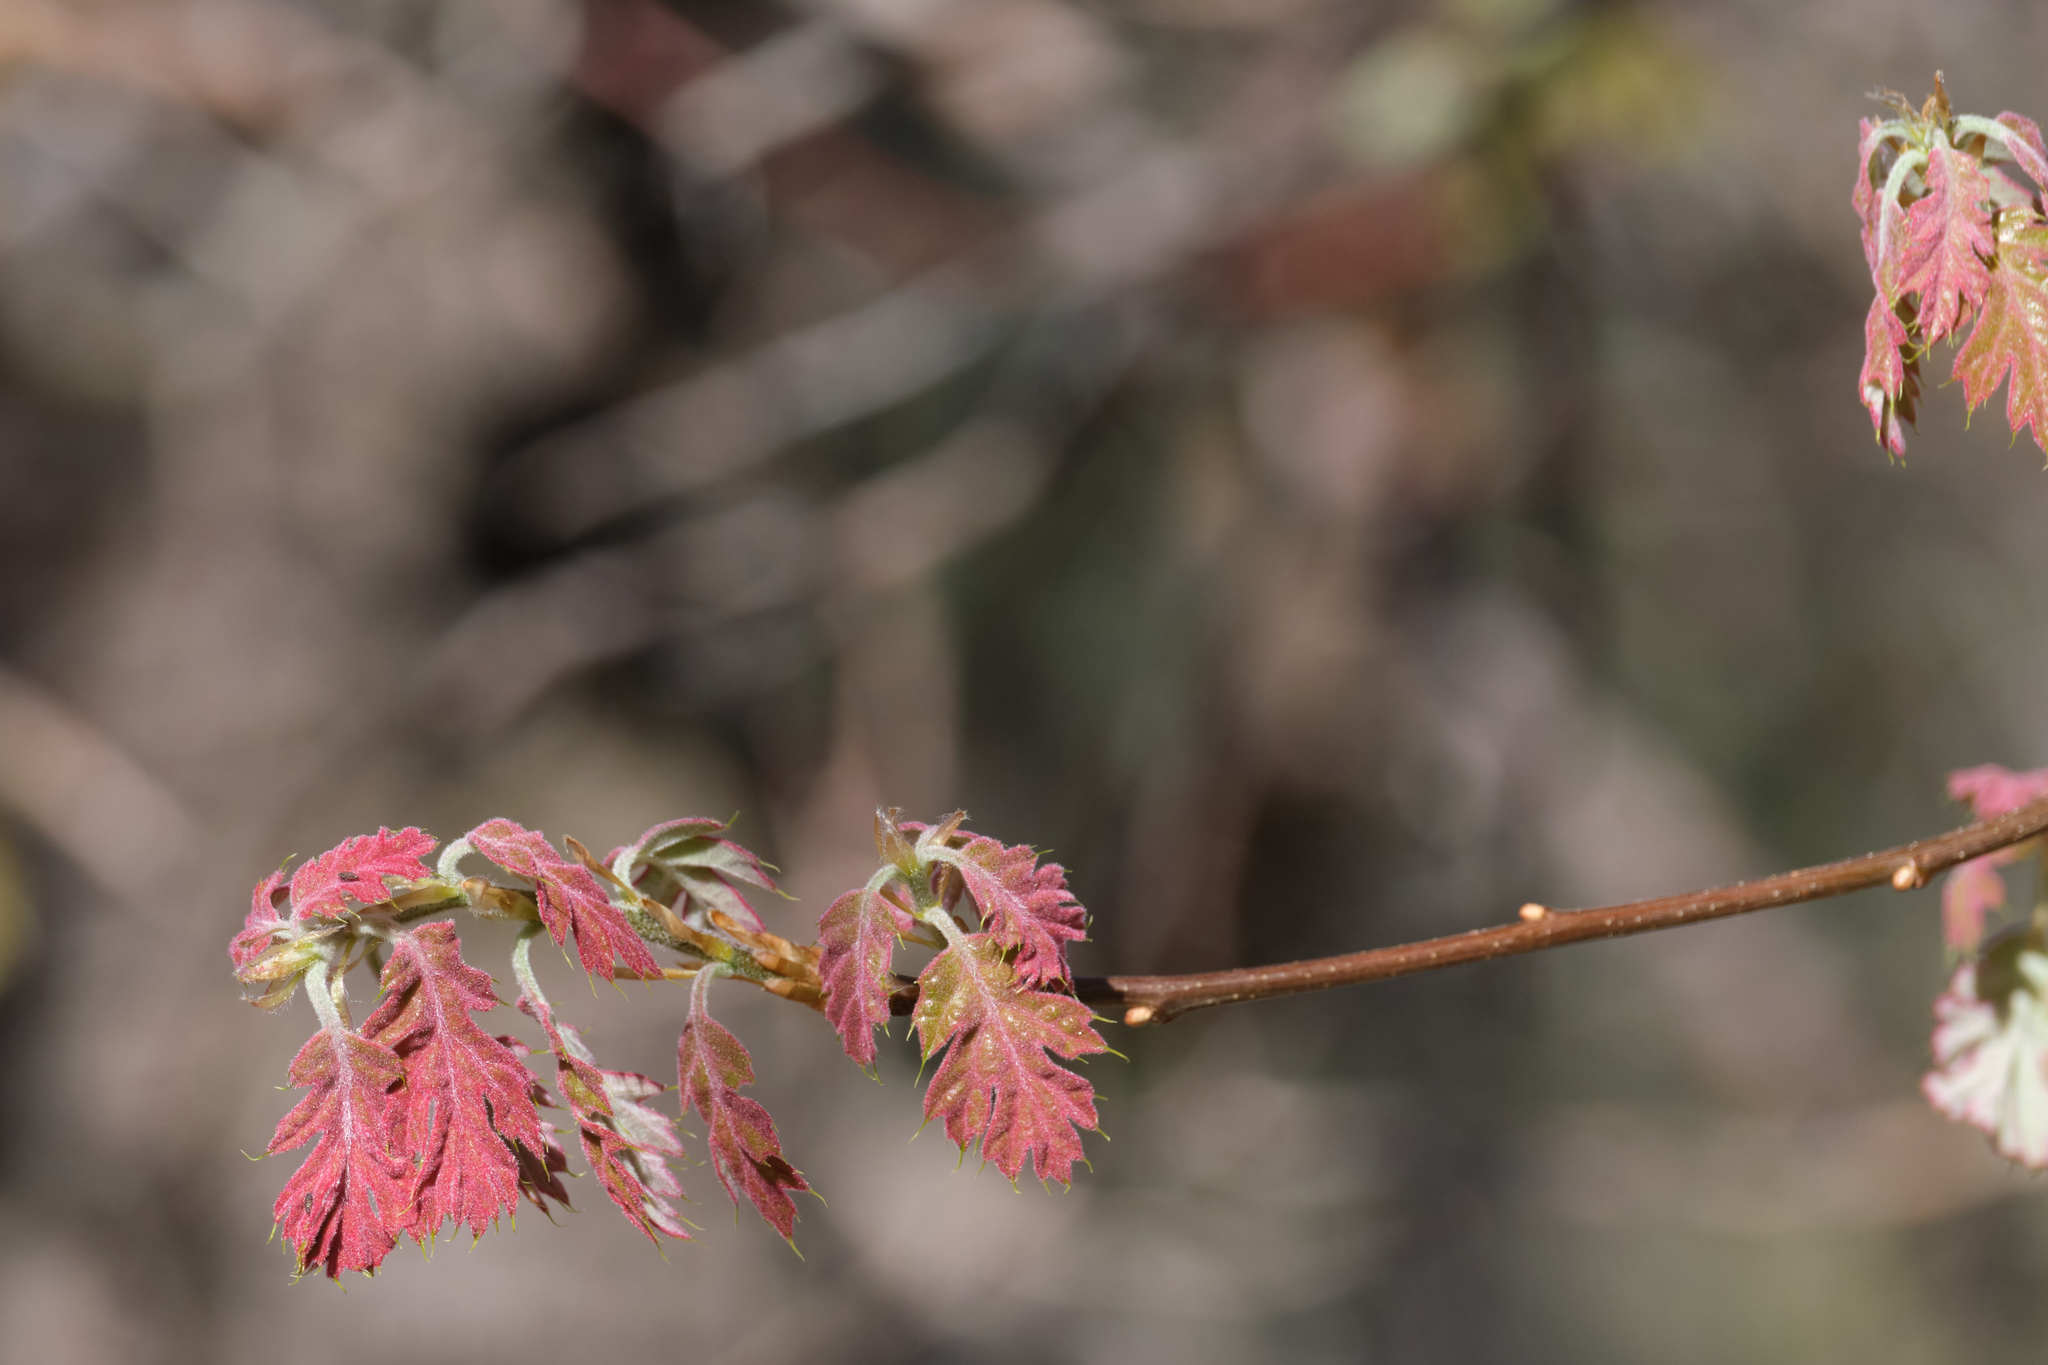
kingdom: Plantae
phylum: Tracheophyta
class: Magnoliopsida
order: Fagales
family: Fagaceae
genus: Quercus
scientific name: Quercus kelloggii
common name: California black oak
